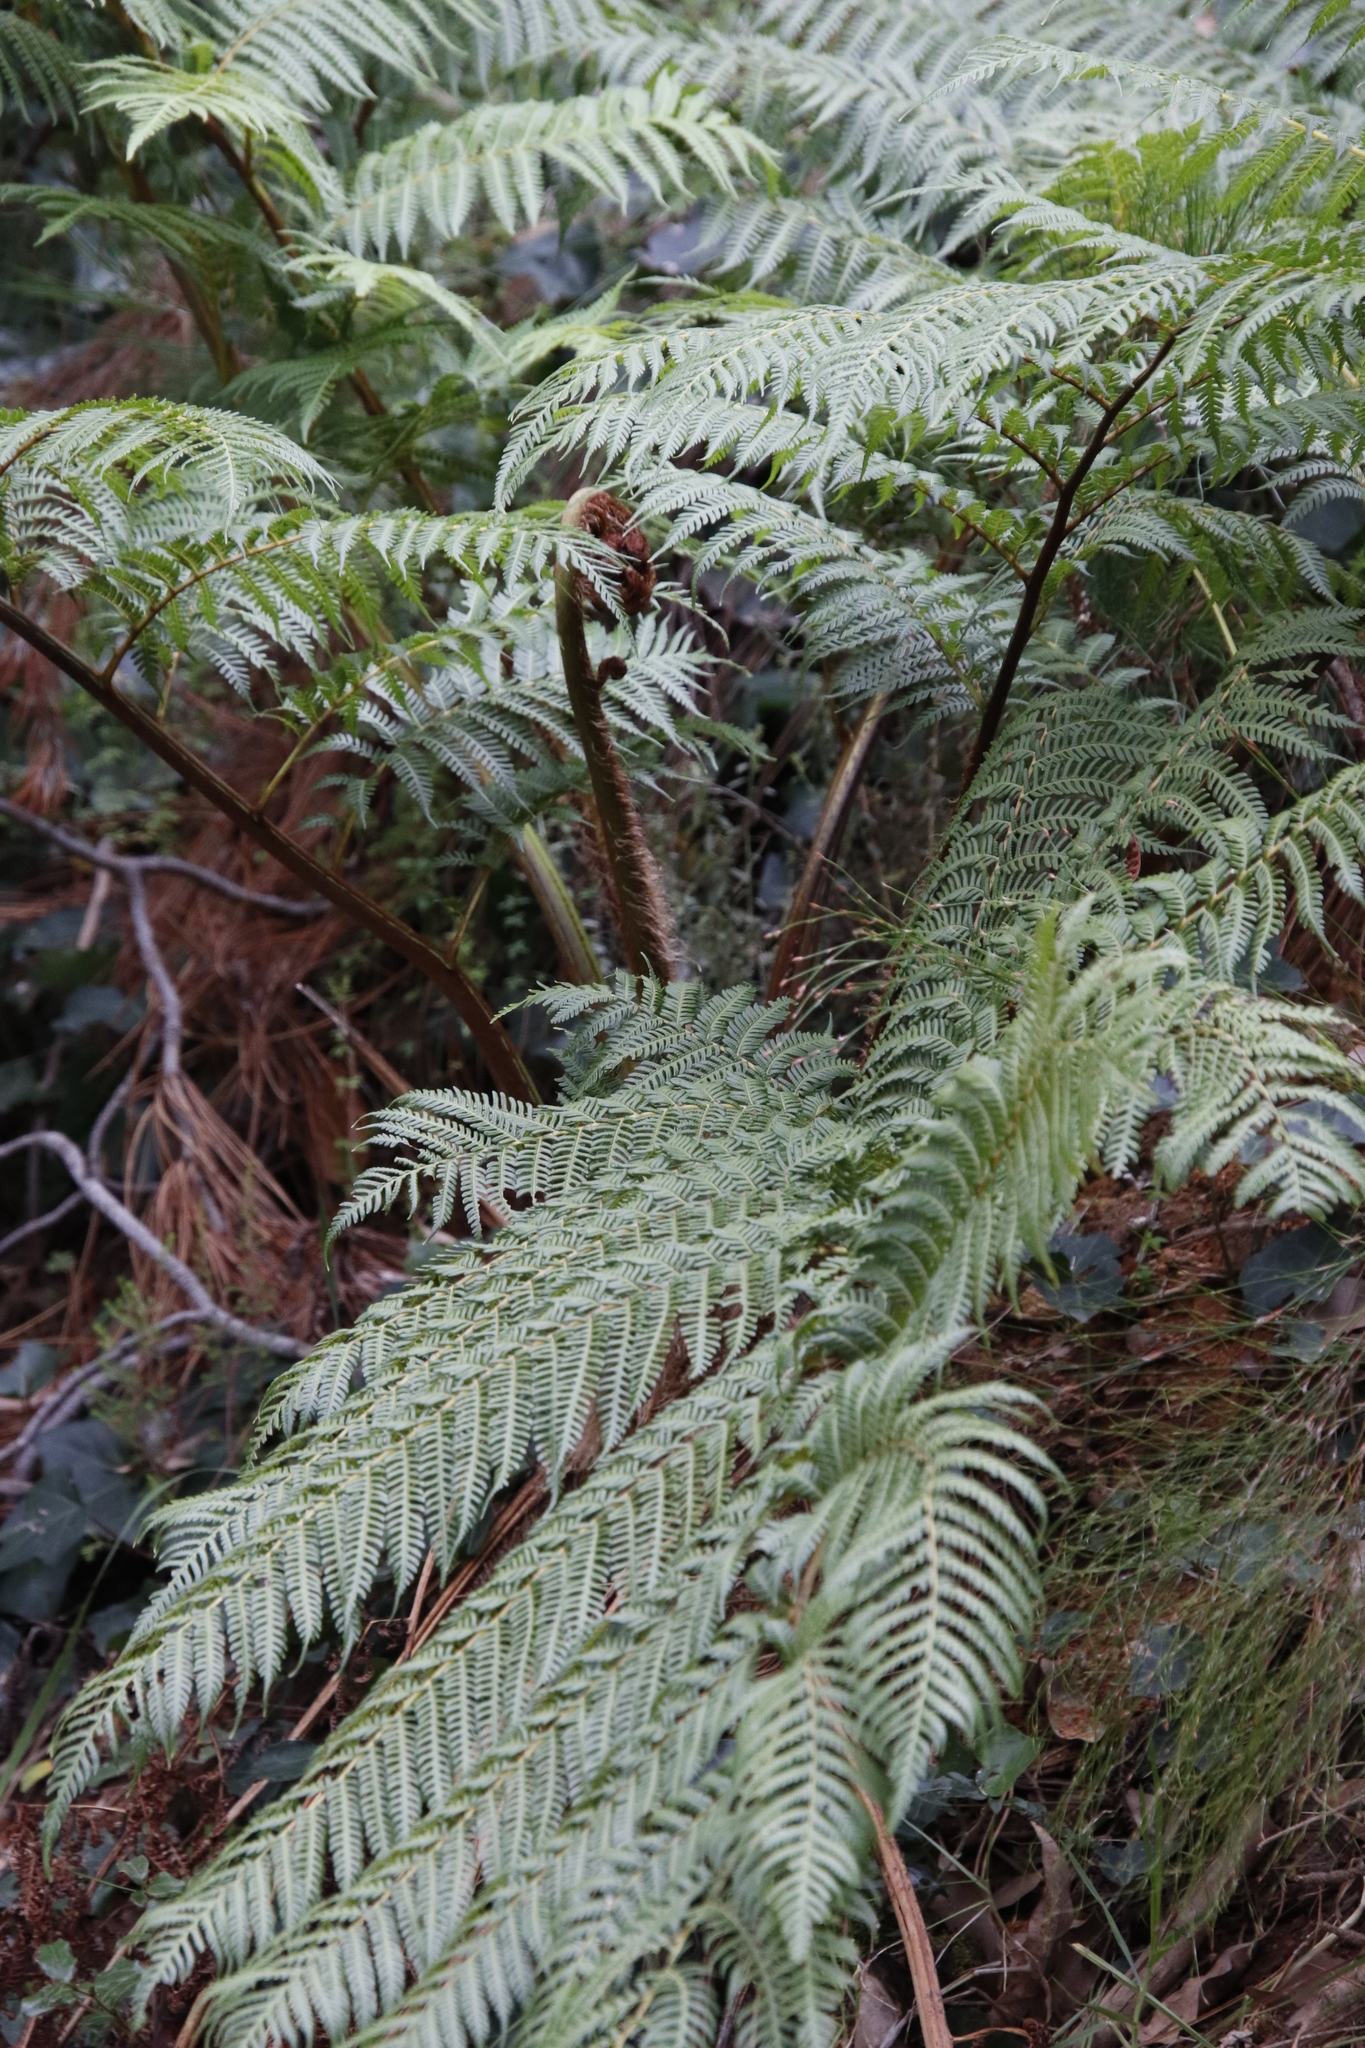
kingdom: Plantae
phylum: Tracheophyta
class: Polypodiopsida
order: Cyatheales
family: Cyatheaceae
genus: Sphaeropteris
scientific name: Sphaeropteris cooperi
